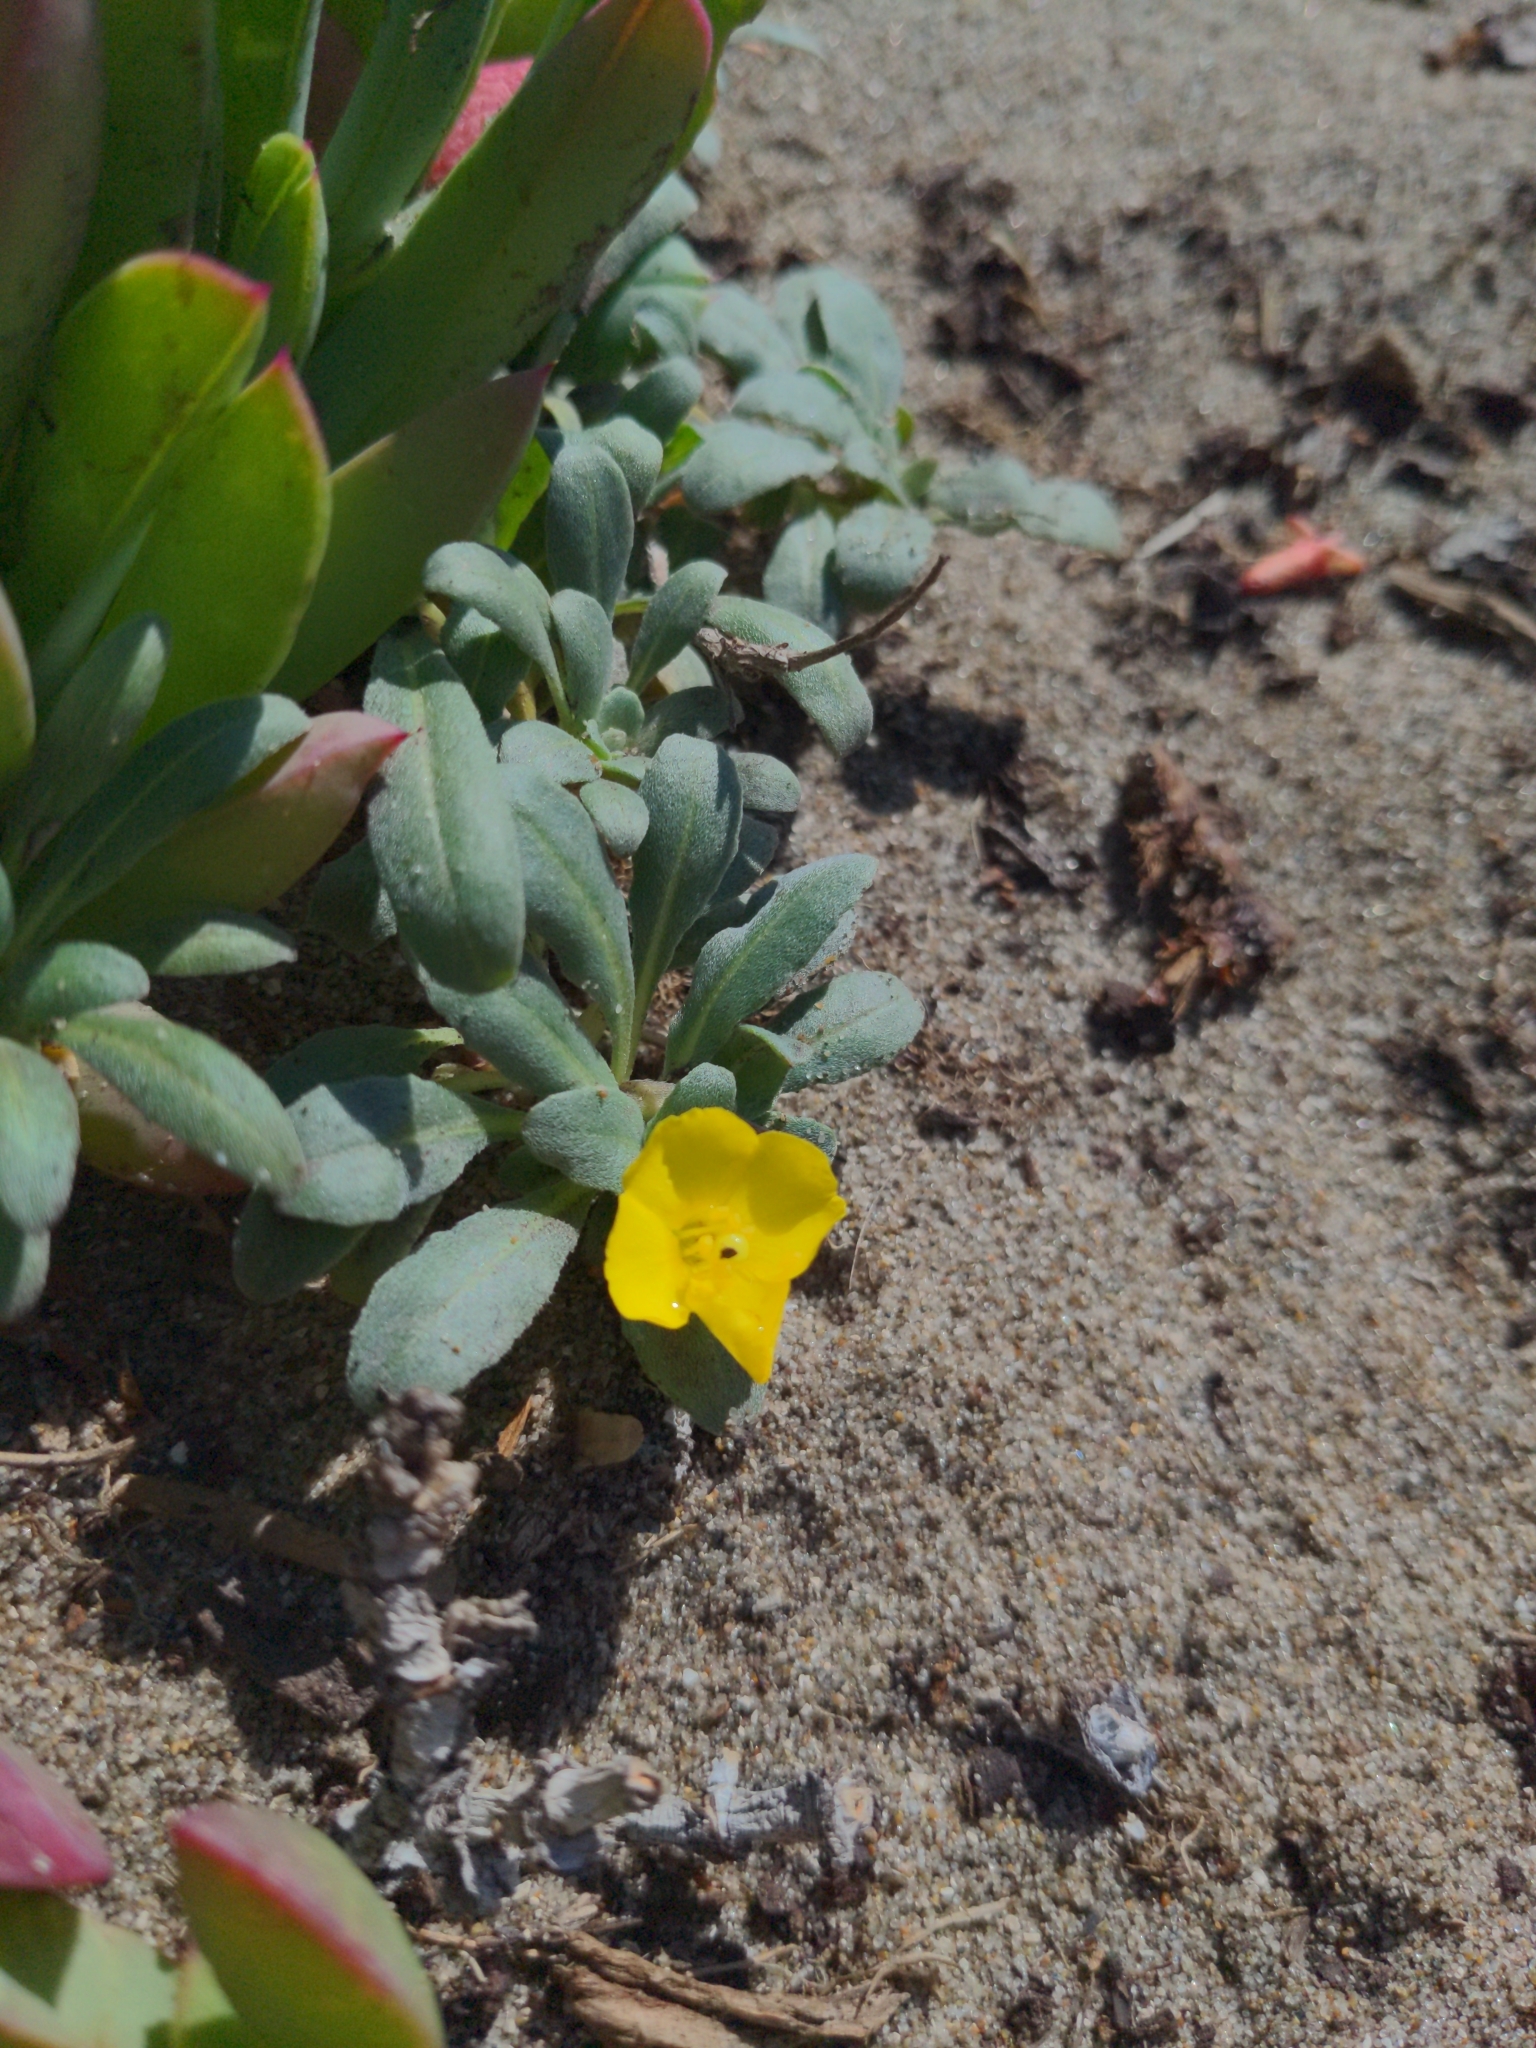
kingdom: Plantae
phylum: Tracheophyta
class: Magnoliopsida
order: Myrtales
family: Onagraceae
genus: Camissoniopsis
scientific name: Camissoniopsis cheiranthifolia
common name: Beach suncup
